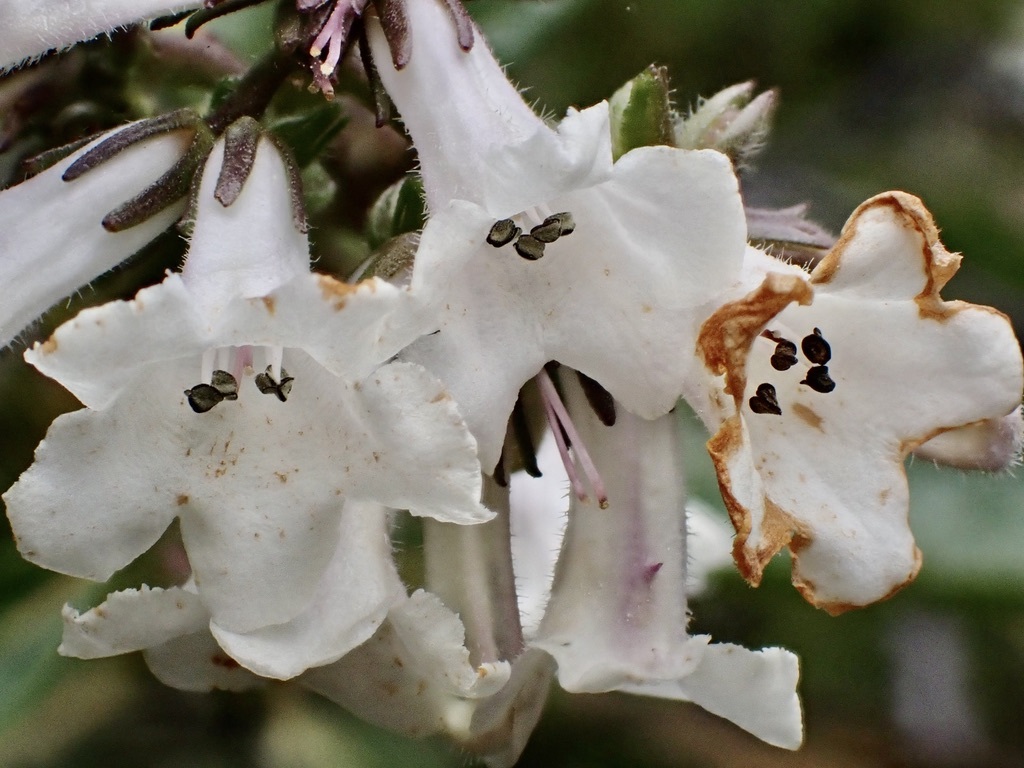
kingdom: Plantae
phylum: Tracheophyta
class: Magnoliopsida
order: Boraginales
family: Namaceae
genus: Eriodictyon
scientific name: Eriodictyon californicum
